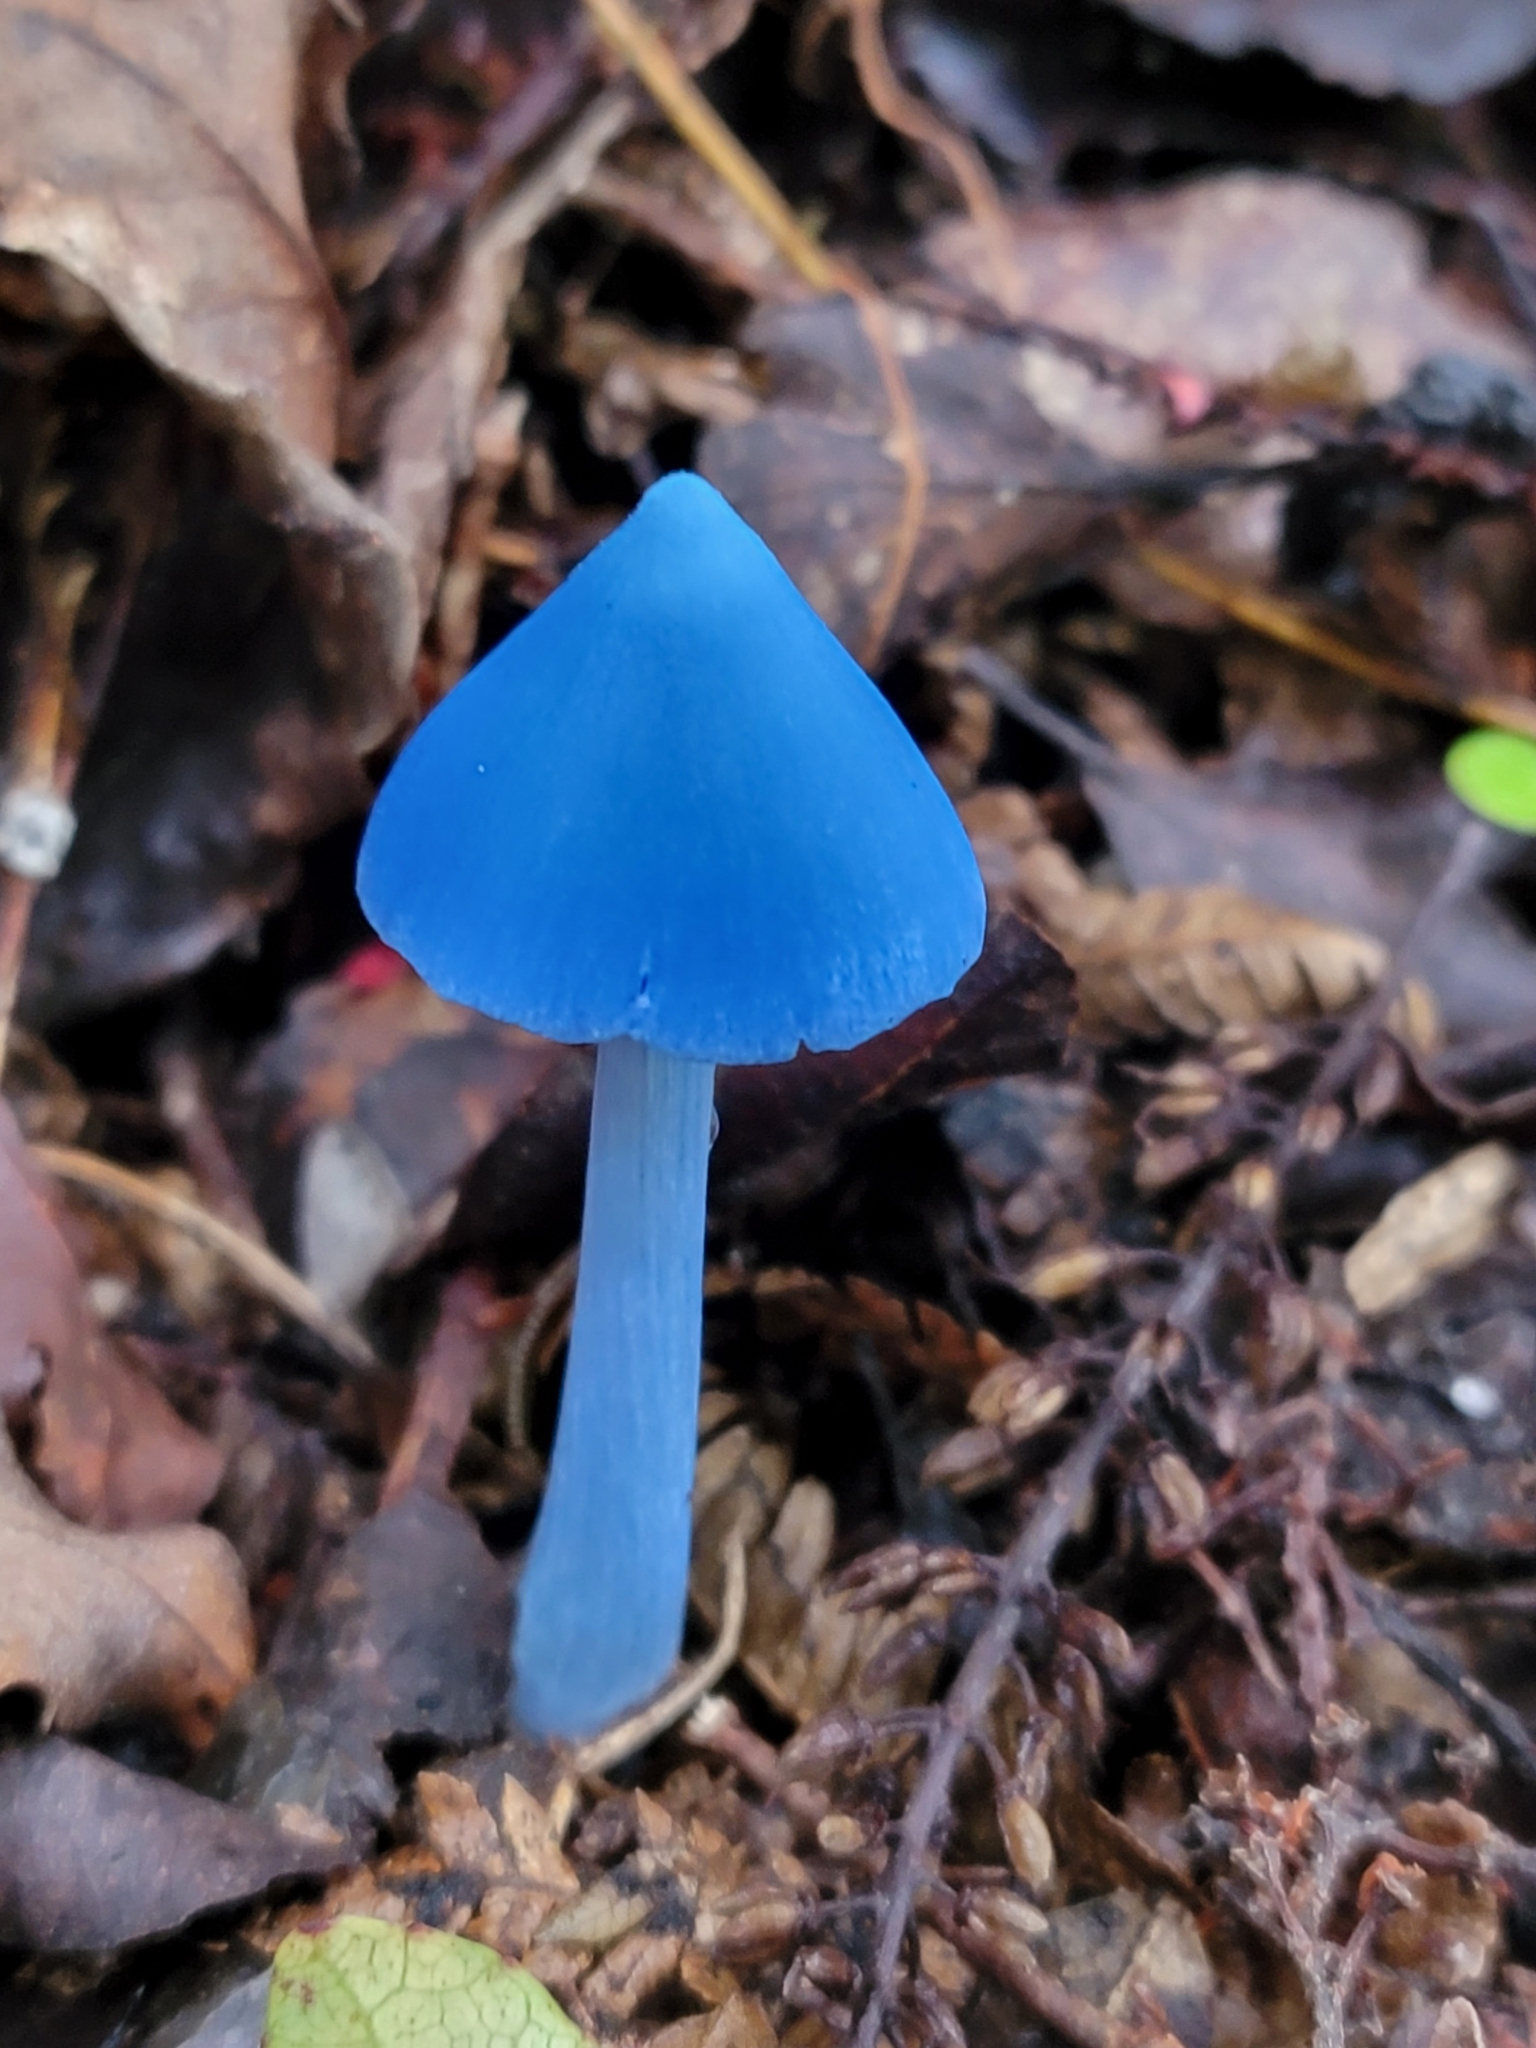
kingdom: Fungi
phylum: Basidiomycota
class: Agaricomycetes
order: Agaricales
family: Entolomataceae
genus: Entoloma
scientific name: Entoloma hochstetteri
